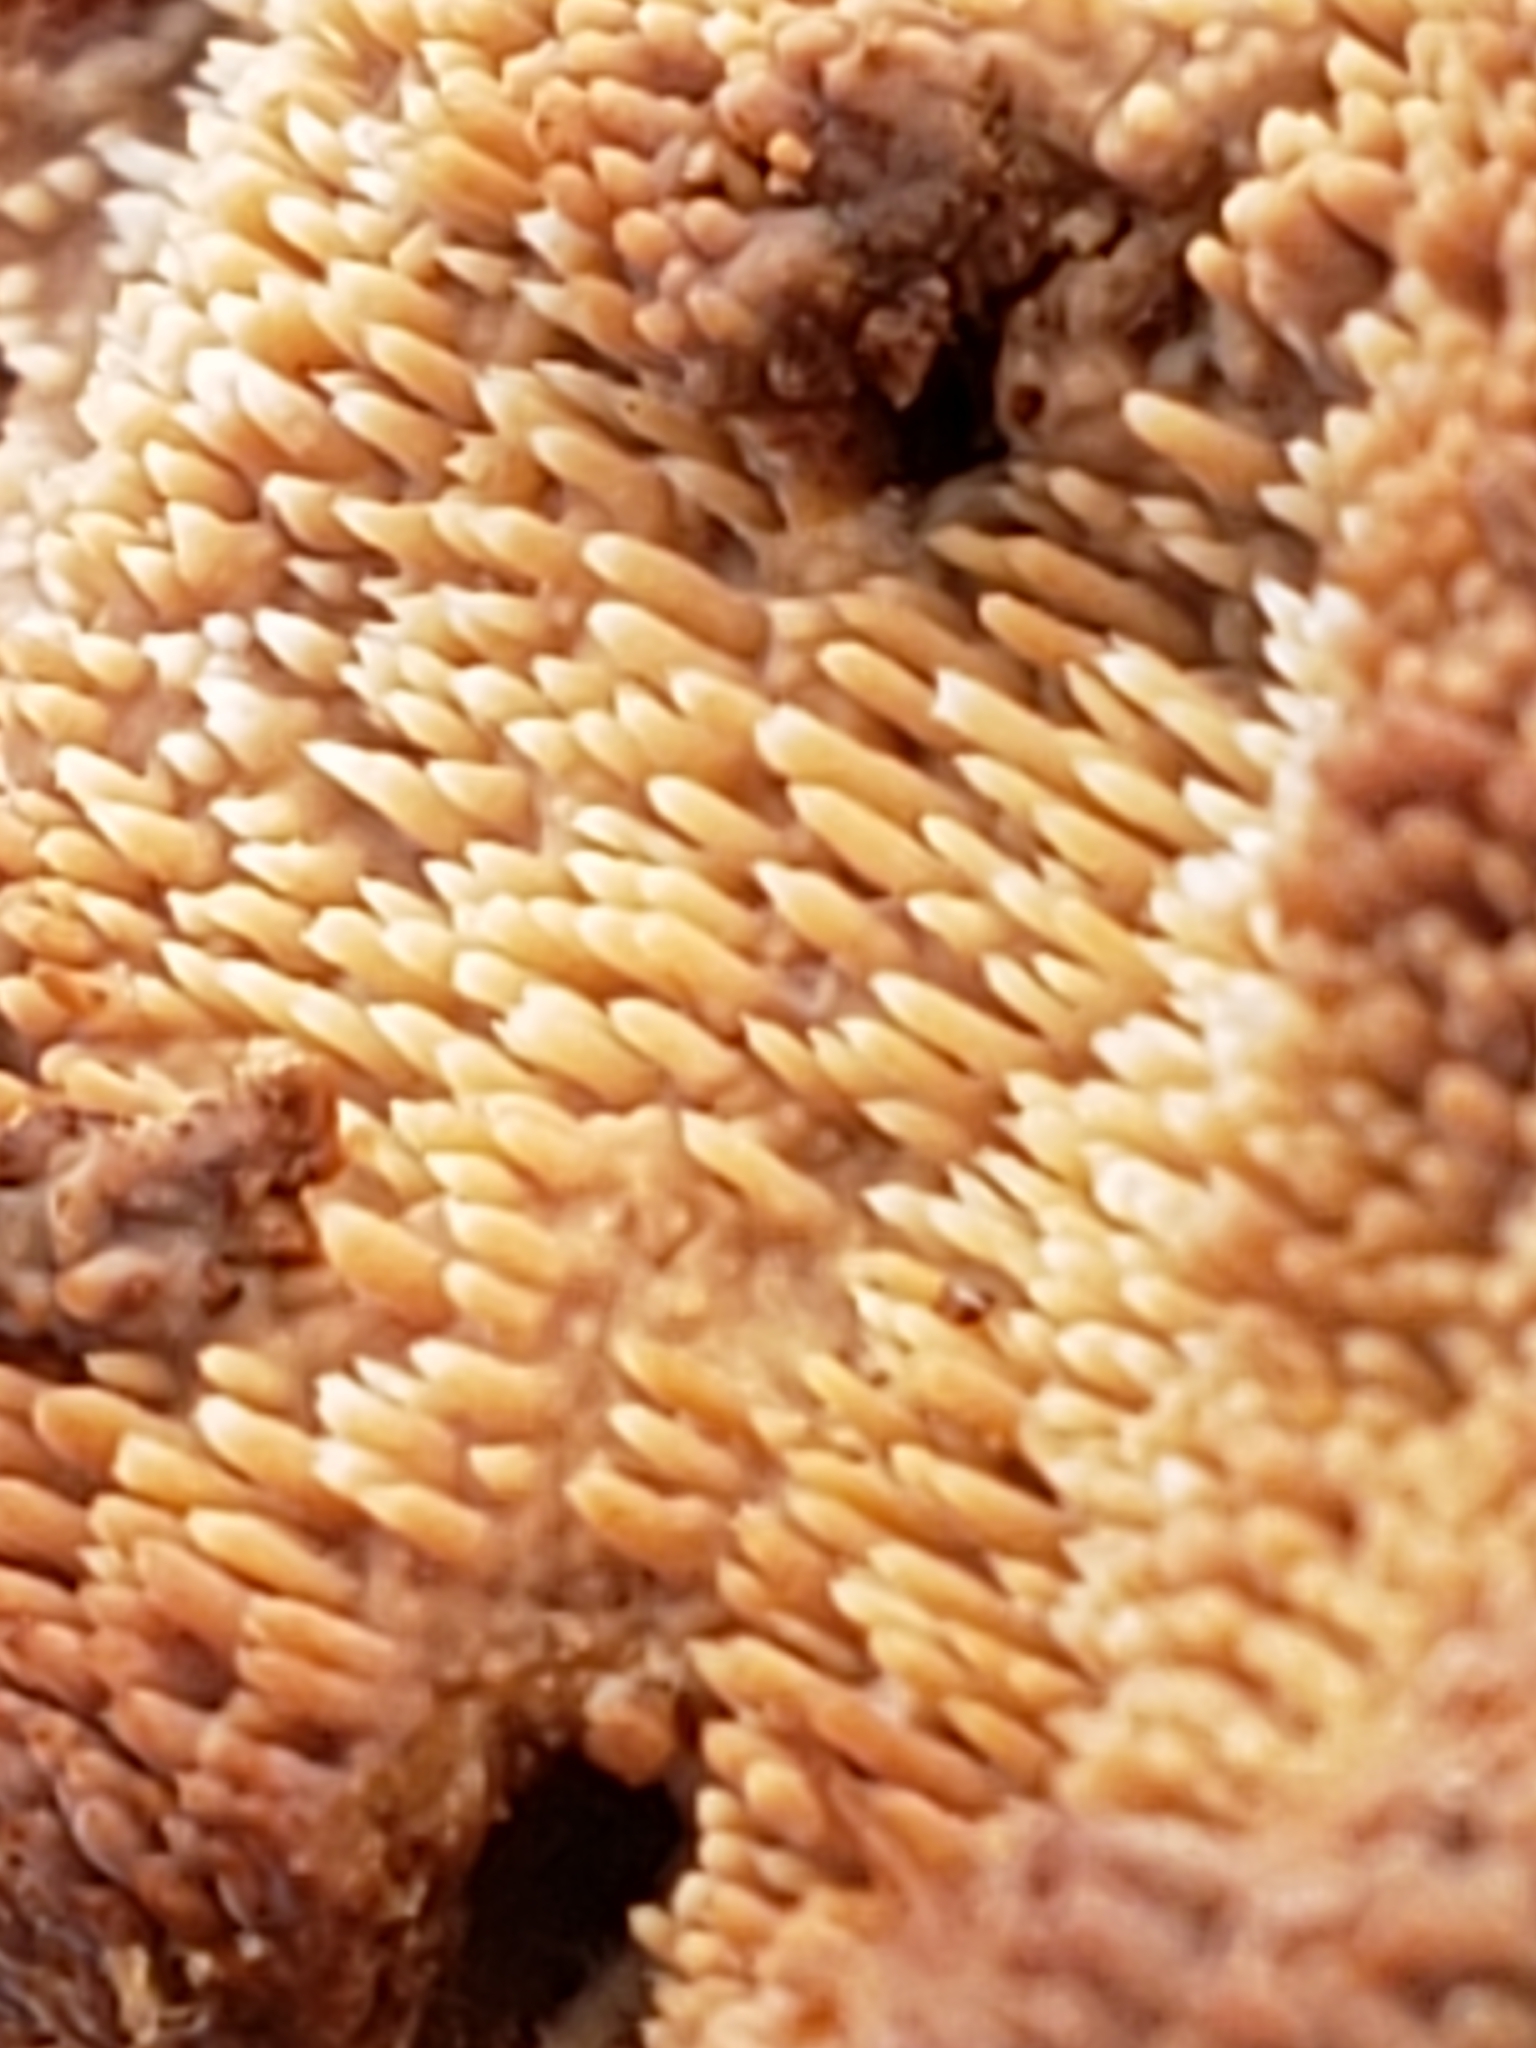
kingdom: Fungi
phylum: Basidiomycota
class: Agaricomycetes
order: Agaricales
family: Radulomycetaceae
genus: Radulomyces
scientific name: Radulomyces copelandii
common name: Asian beauty
